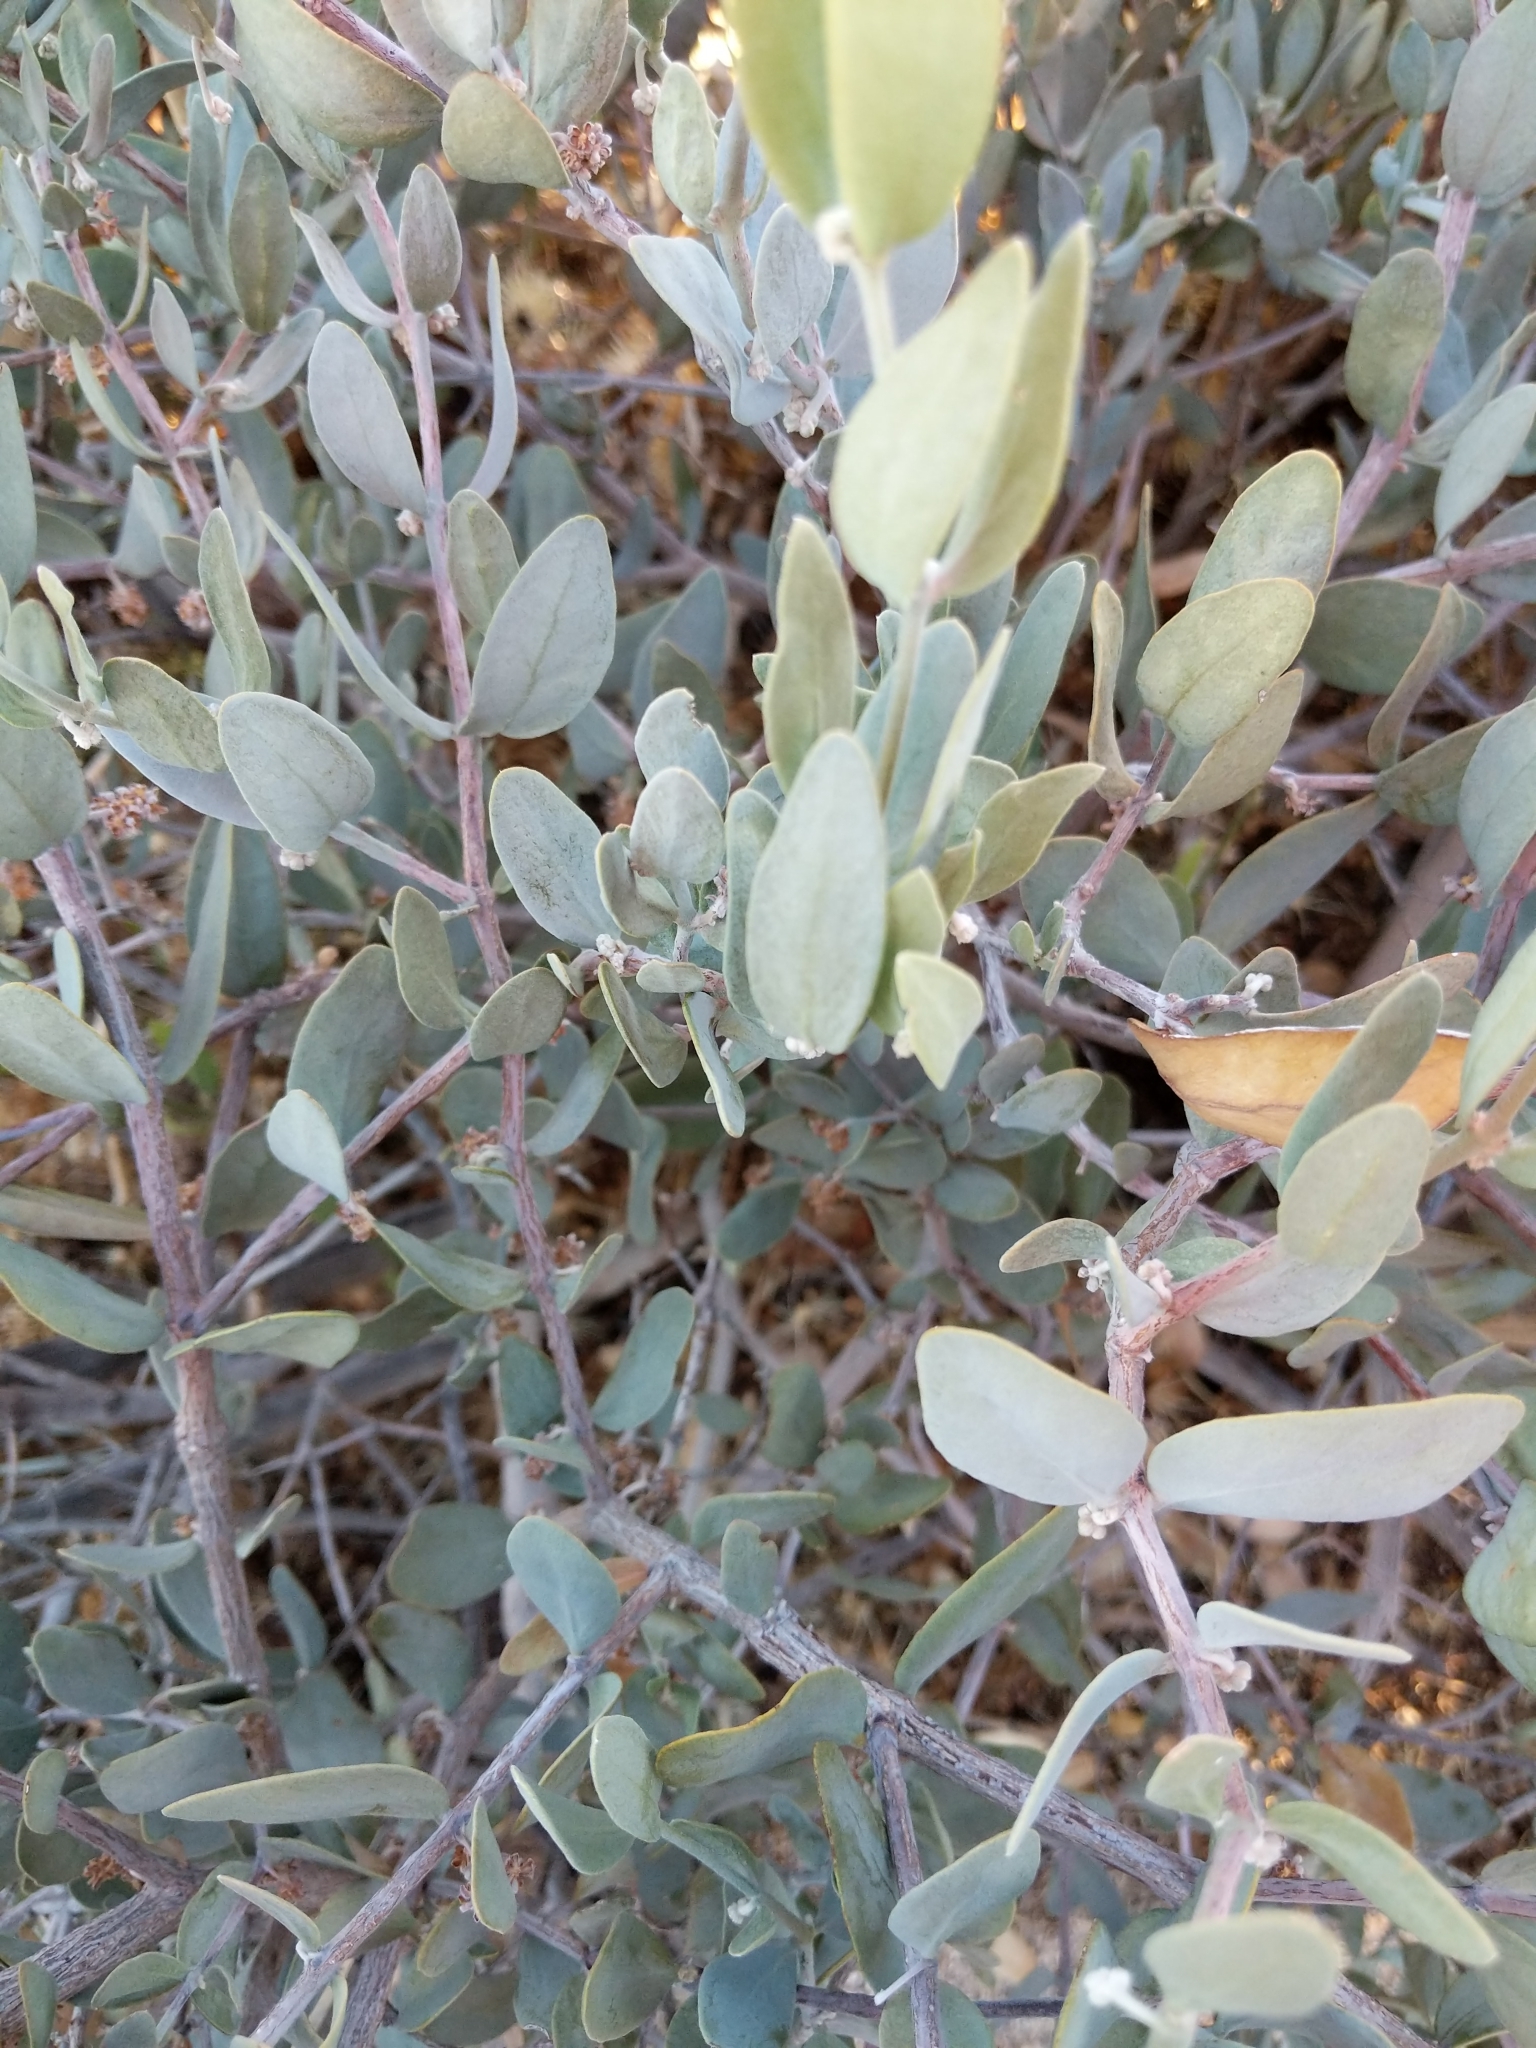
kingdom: Plantae
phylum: Tracheophyta
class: Magnoliopsida
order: Caryophyllales
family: Simmondsiaceae
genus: Simmondsia
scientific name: Simmondsia chinensis
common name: Jojoba
